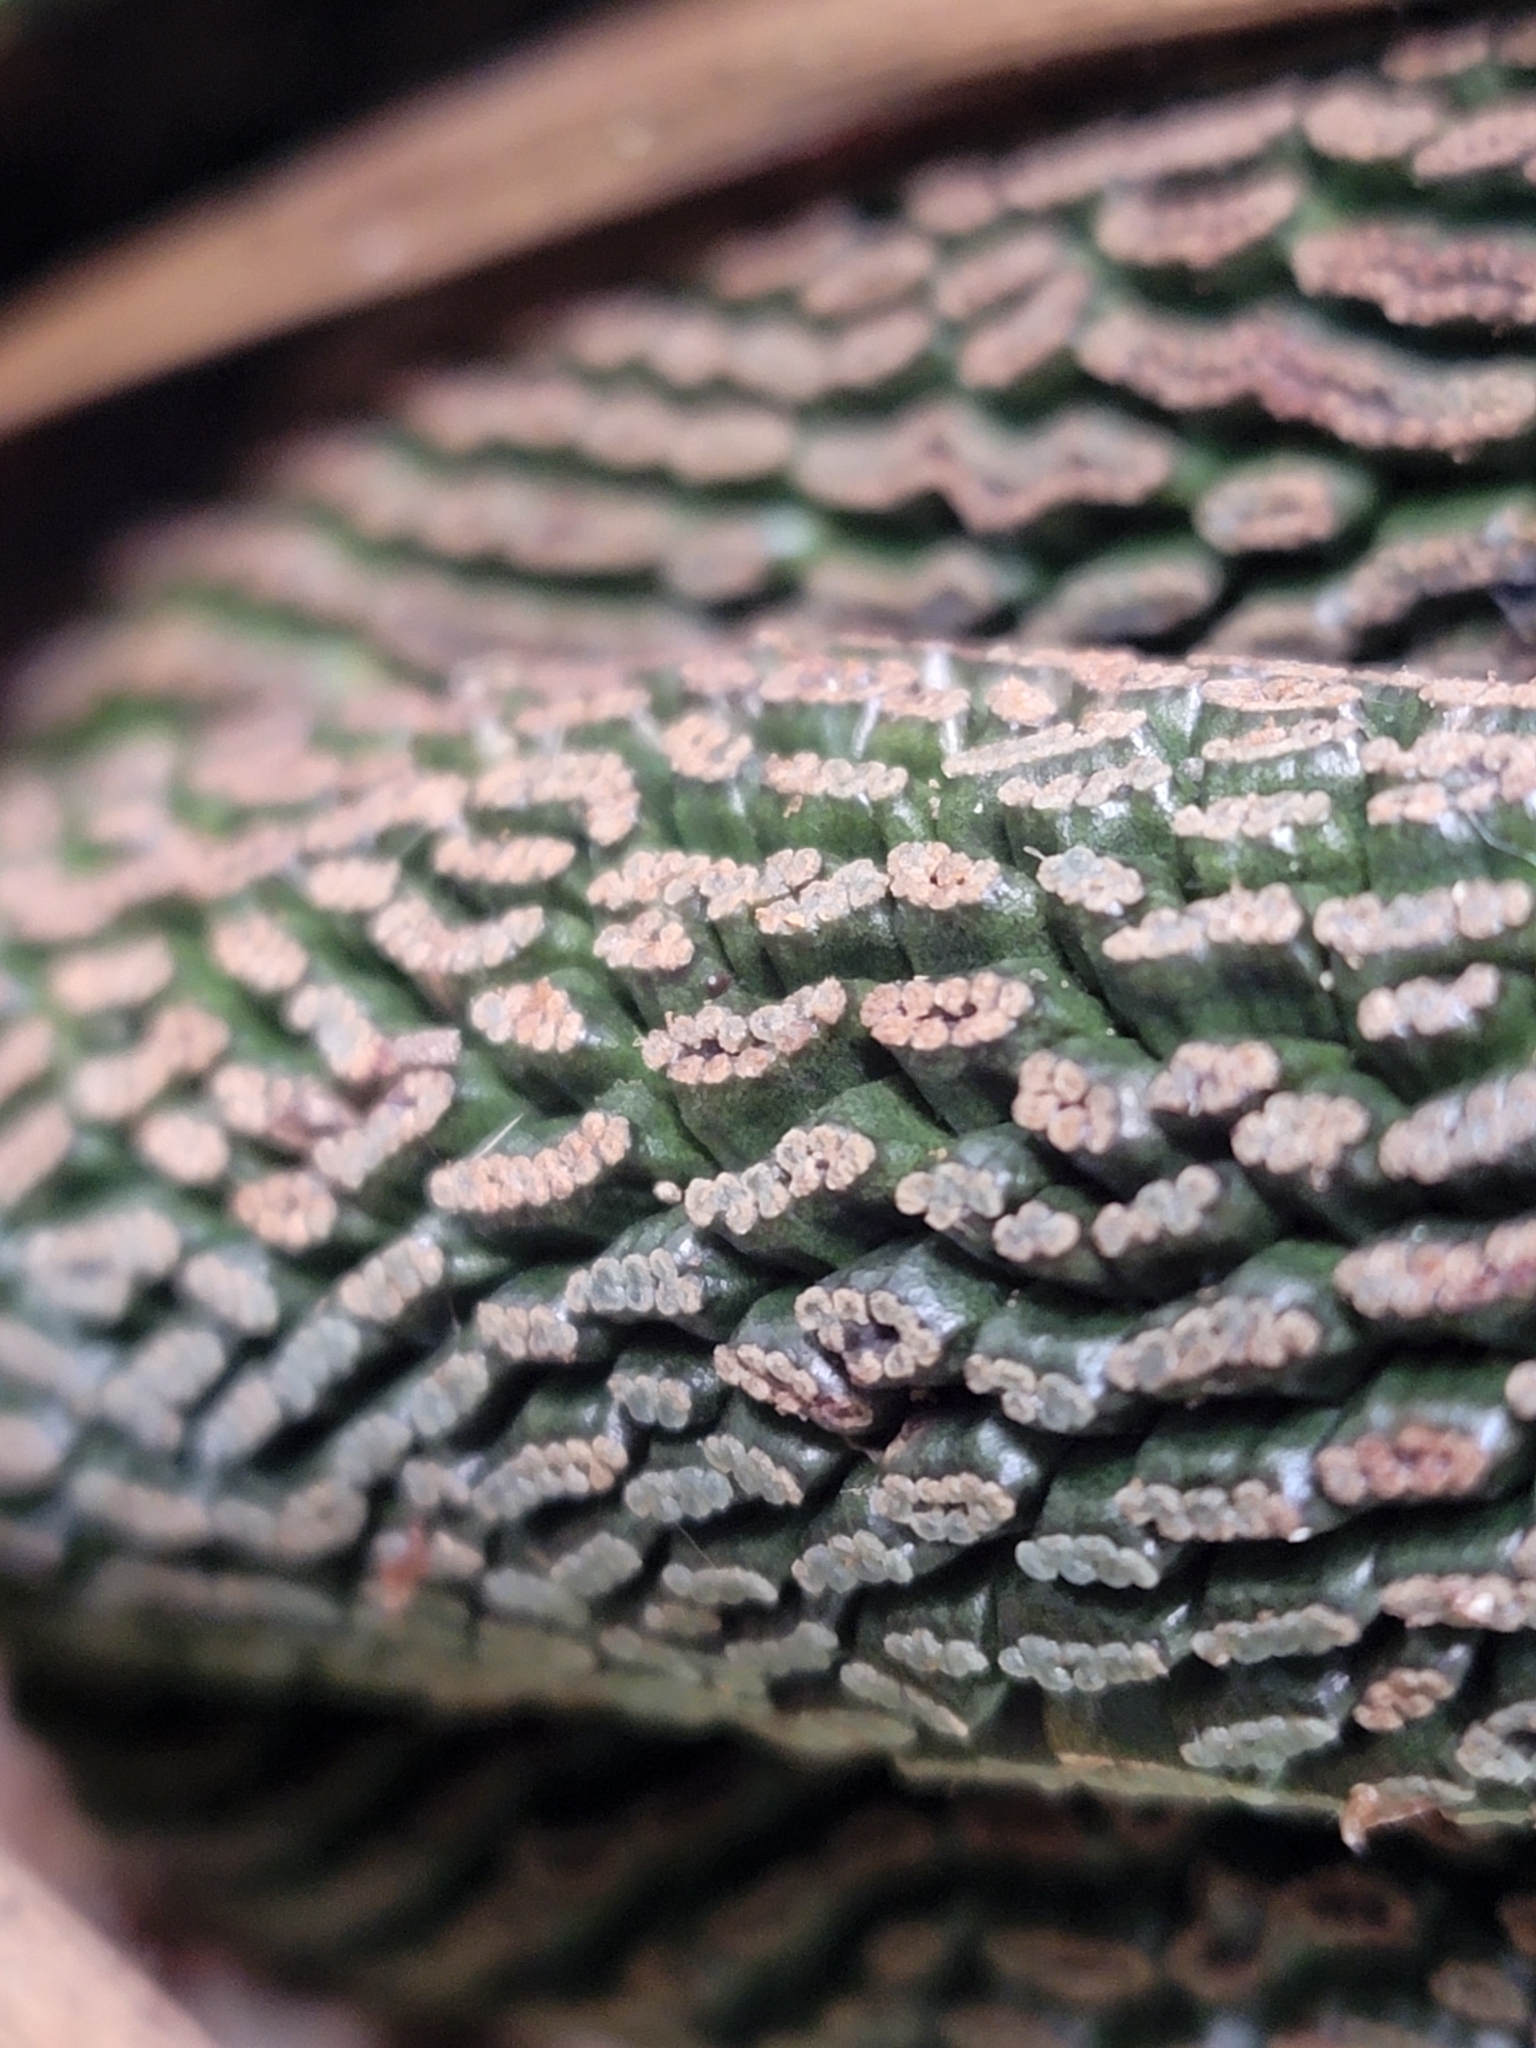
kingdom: Plantae
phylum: Tracheophyta
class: Liliopsida
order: Pandanales
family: Pandanaceae
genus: Freycinetia
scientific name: Freycinetia banksii
